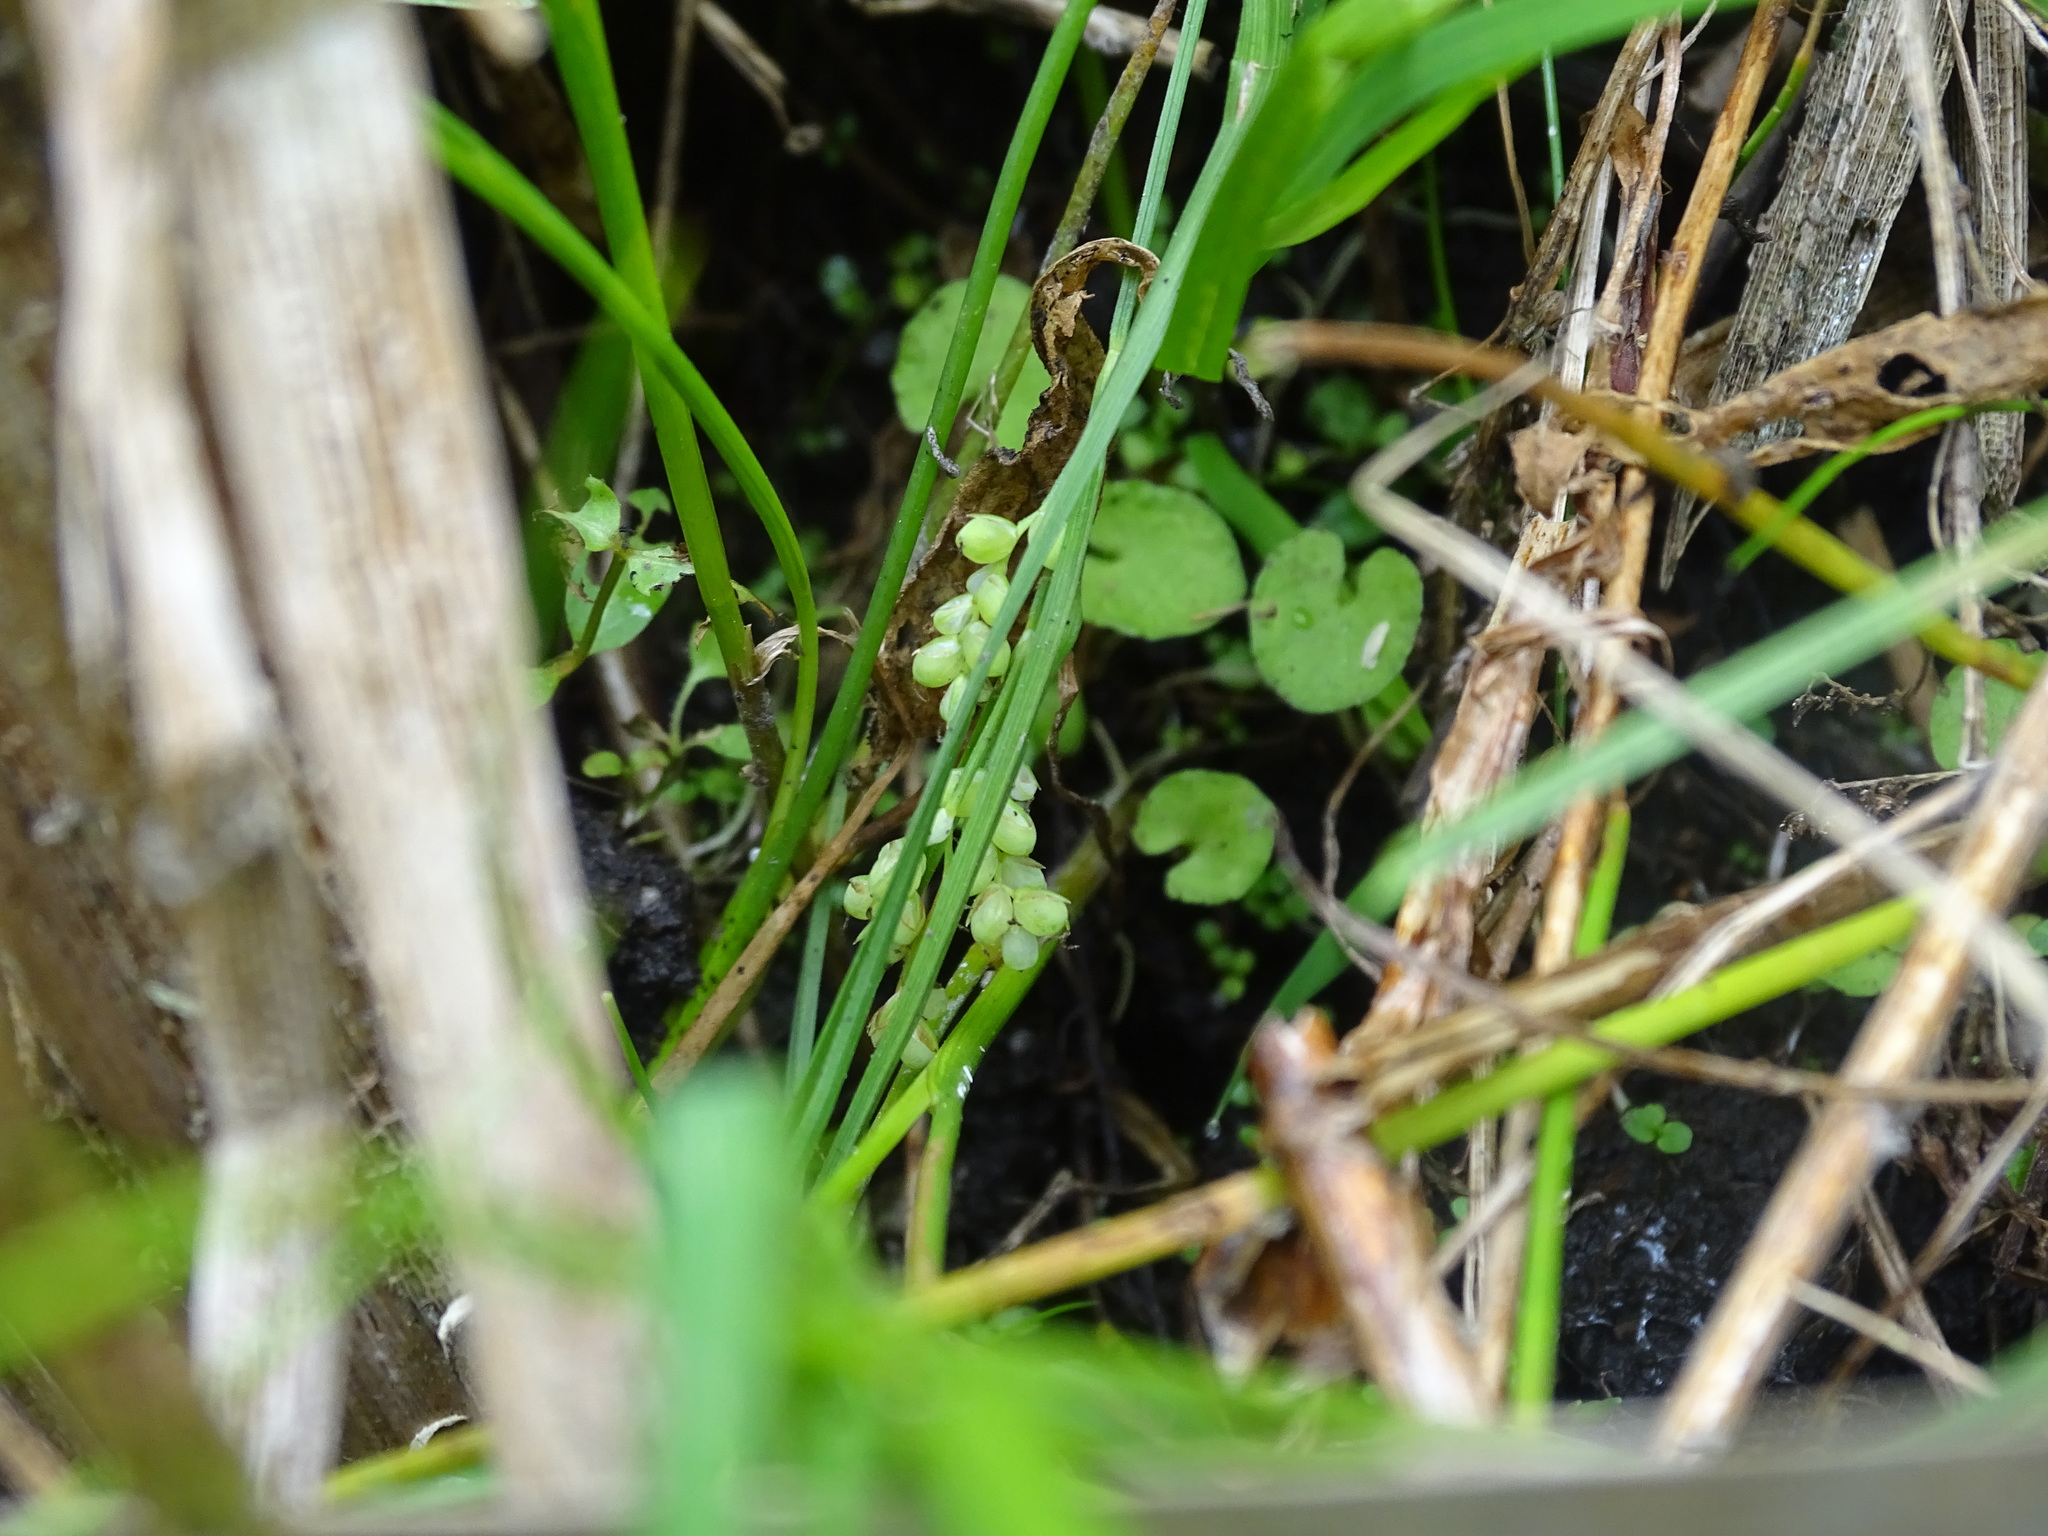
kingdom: Plantae
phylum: Tracheophyta
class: Liliopsida
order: Poales
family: Cyperaceae
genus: Carex
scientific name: Carex aurea
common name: Golden sedge
